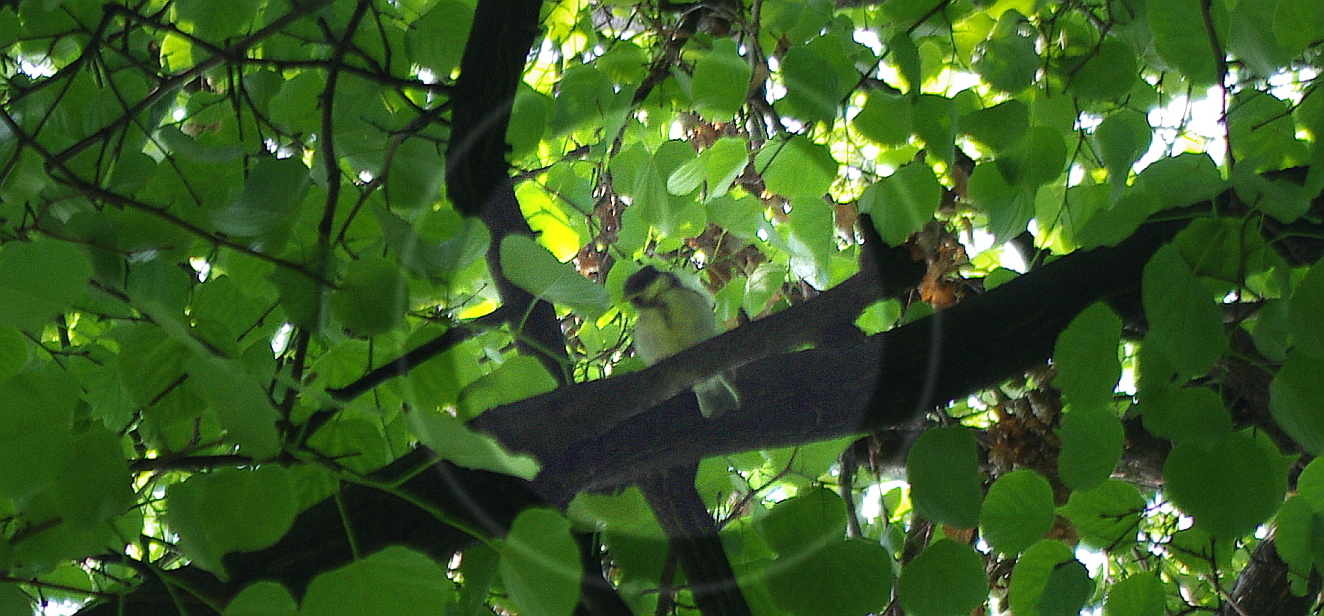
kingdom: Animalia
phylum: Chordata
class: Aves
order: Passeriformes
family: Paridae
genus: Parus
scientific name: Parus major
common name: Great tit
